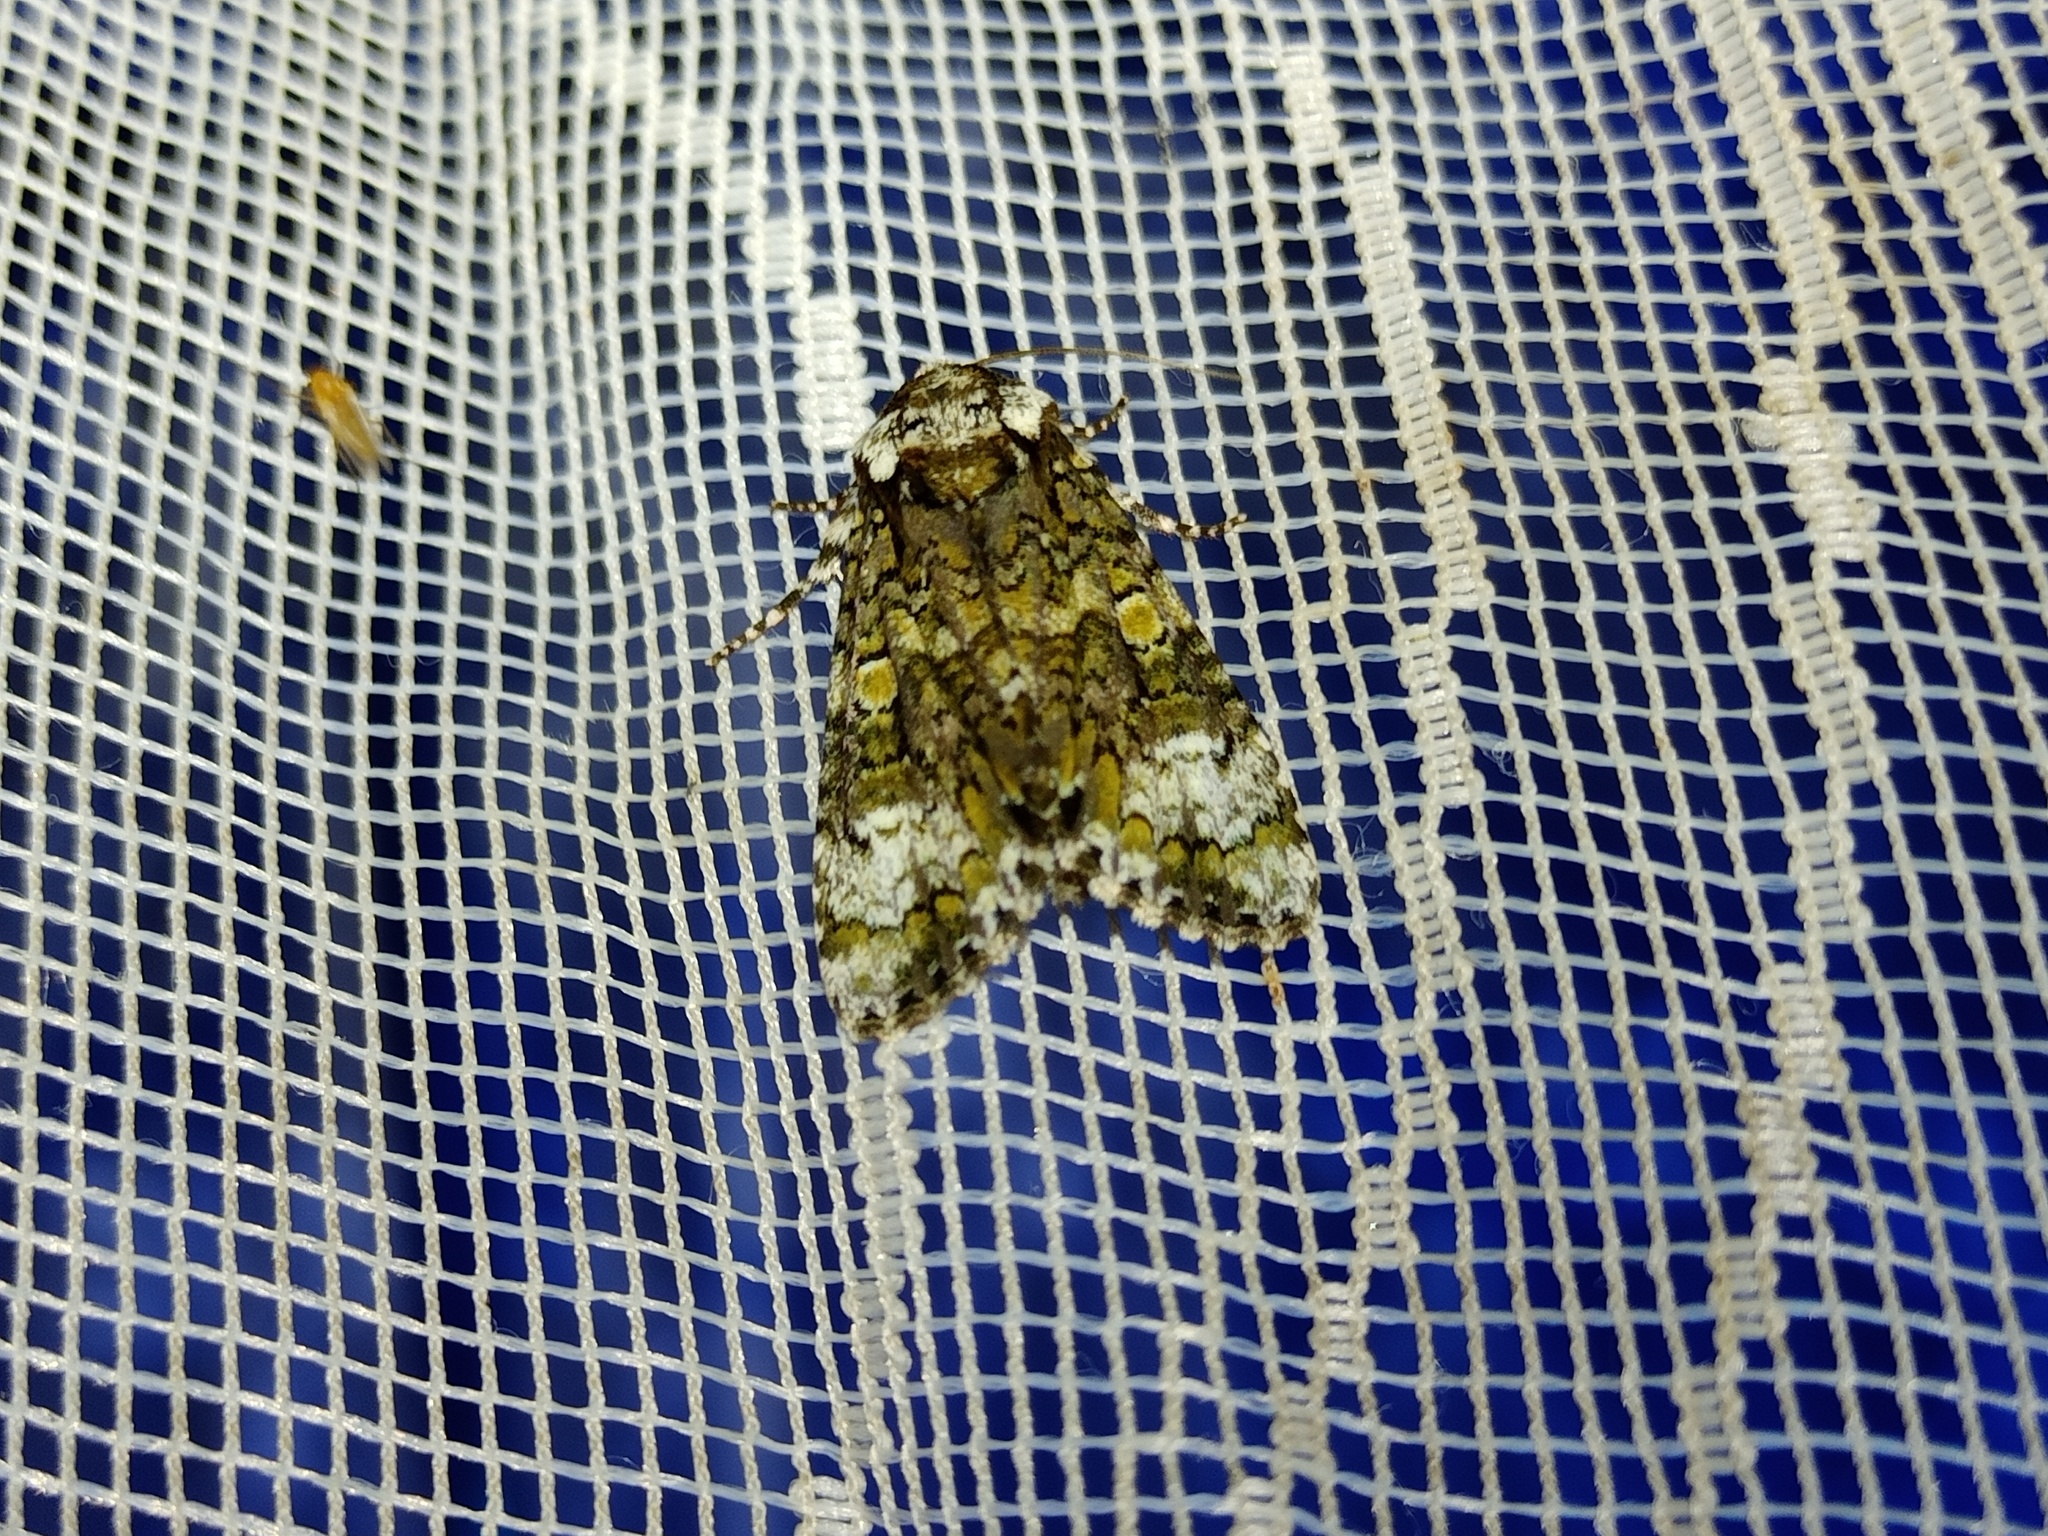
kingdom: Animalia
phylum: Arthropoda
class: Insecta
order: Lepidoptera
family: Noctuidae
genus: Craniophora
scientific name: Craniophora ligustri
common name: Coronet
